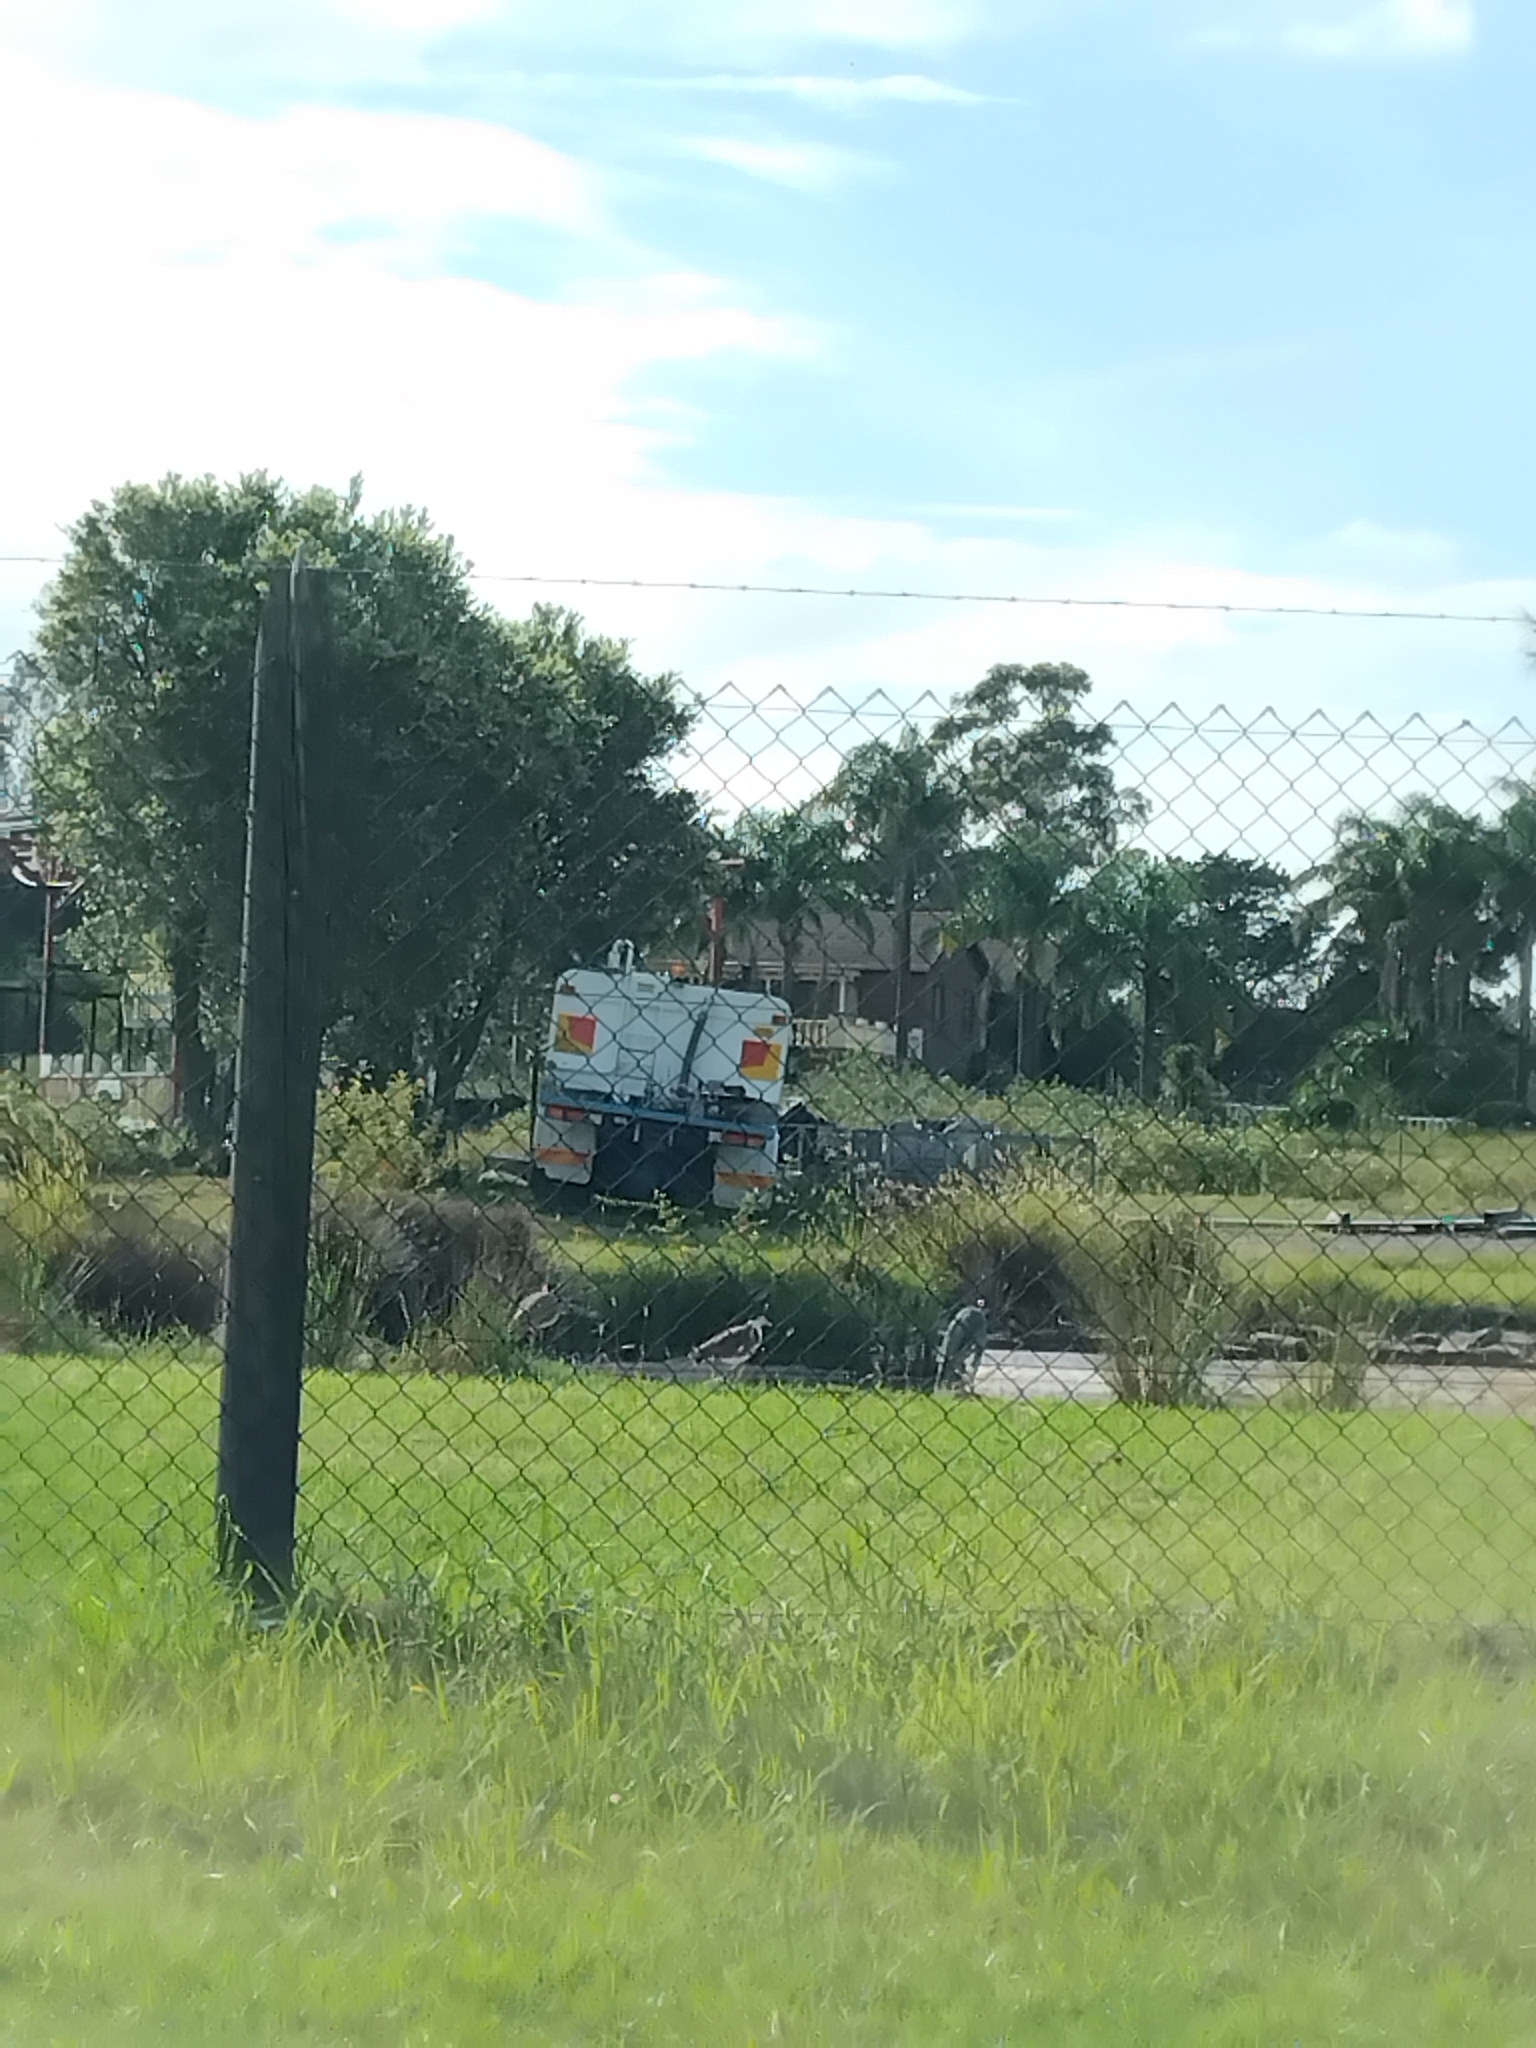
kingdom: Animalia
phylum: Chordata
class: Aves
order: Charadriiformes
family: Charadriidae
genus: Vanellus
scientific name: Vanellus miles
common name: Masked lapwing
